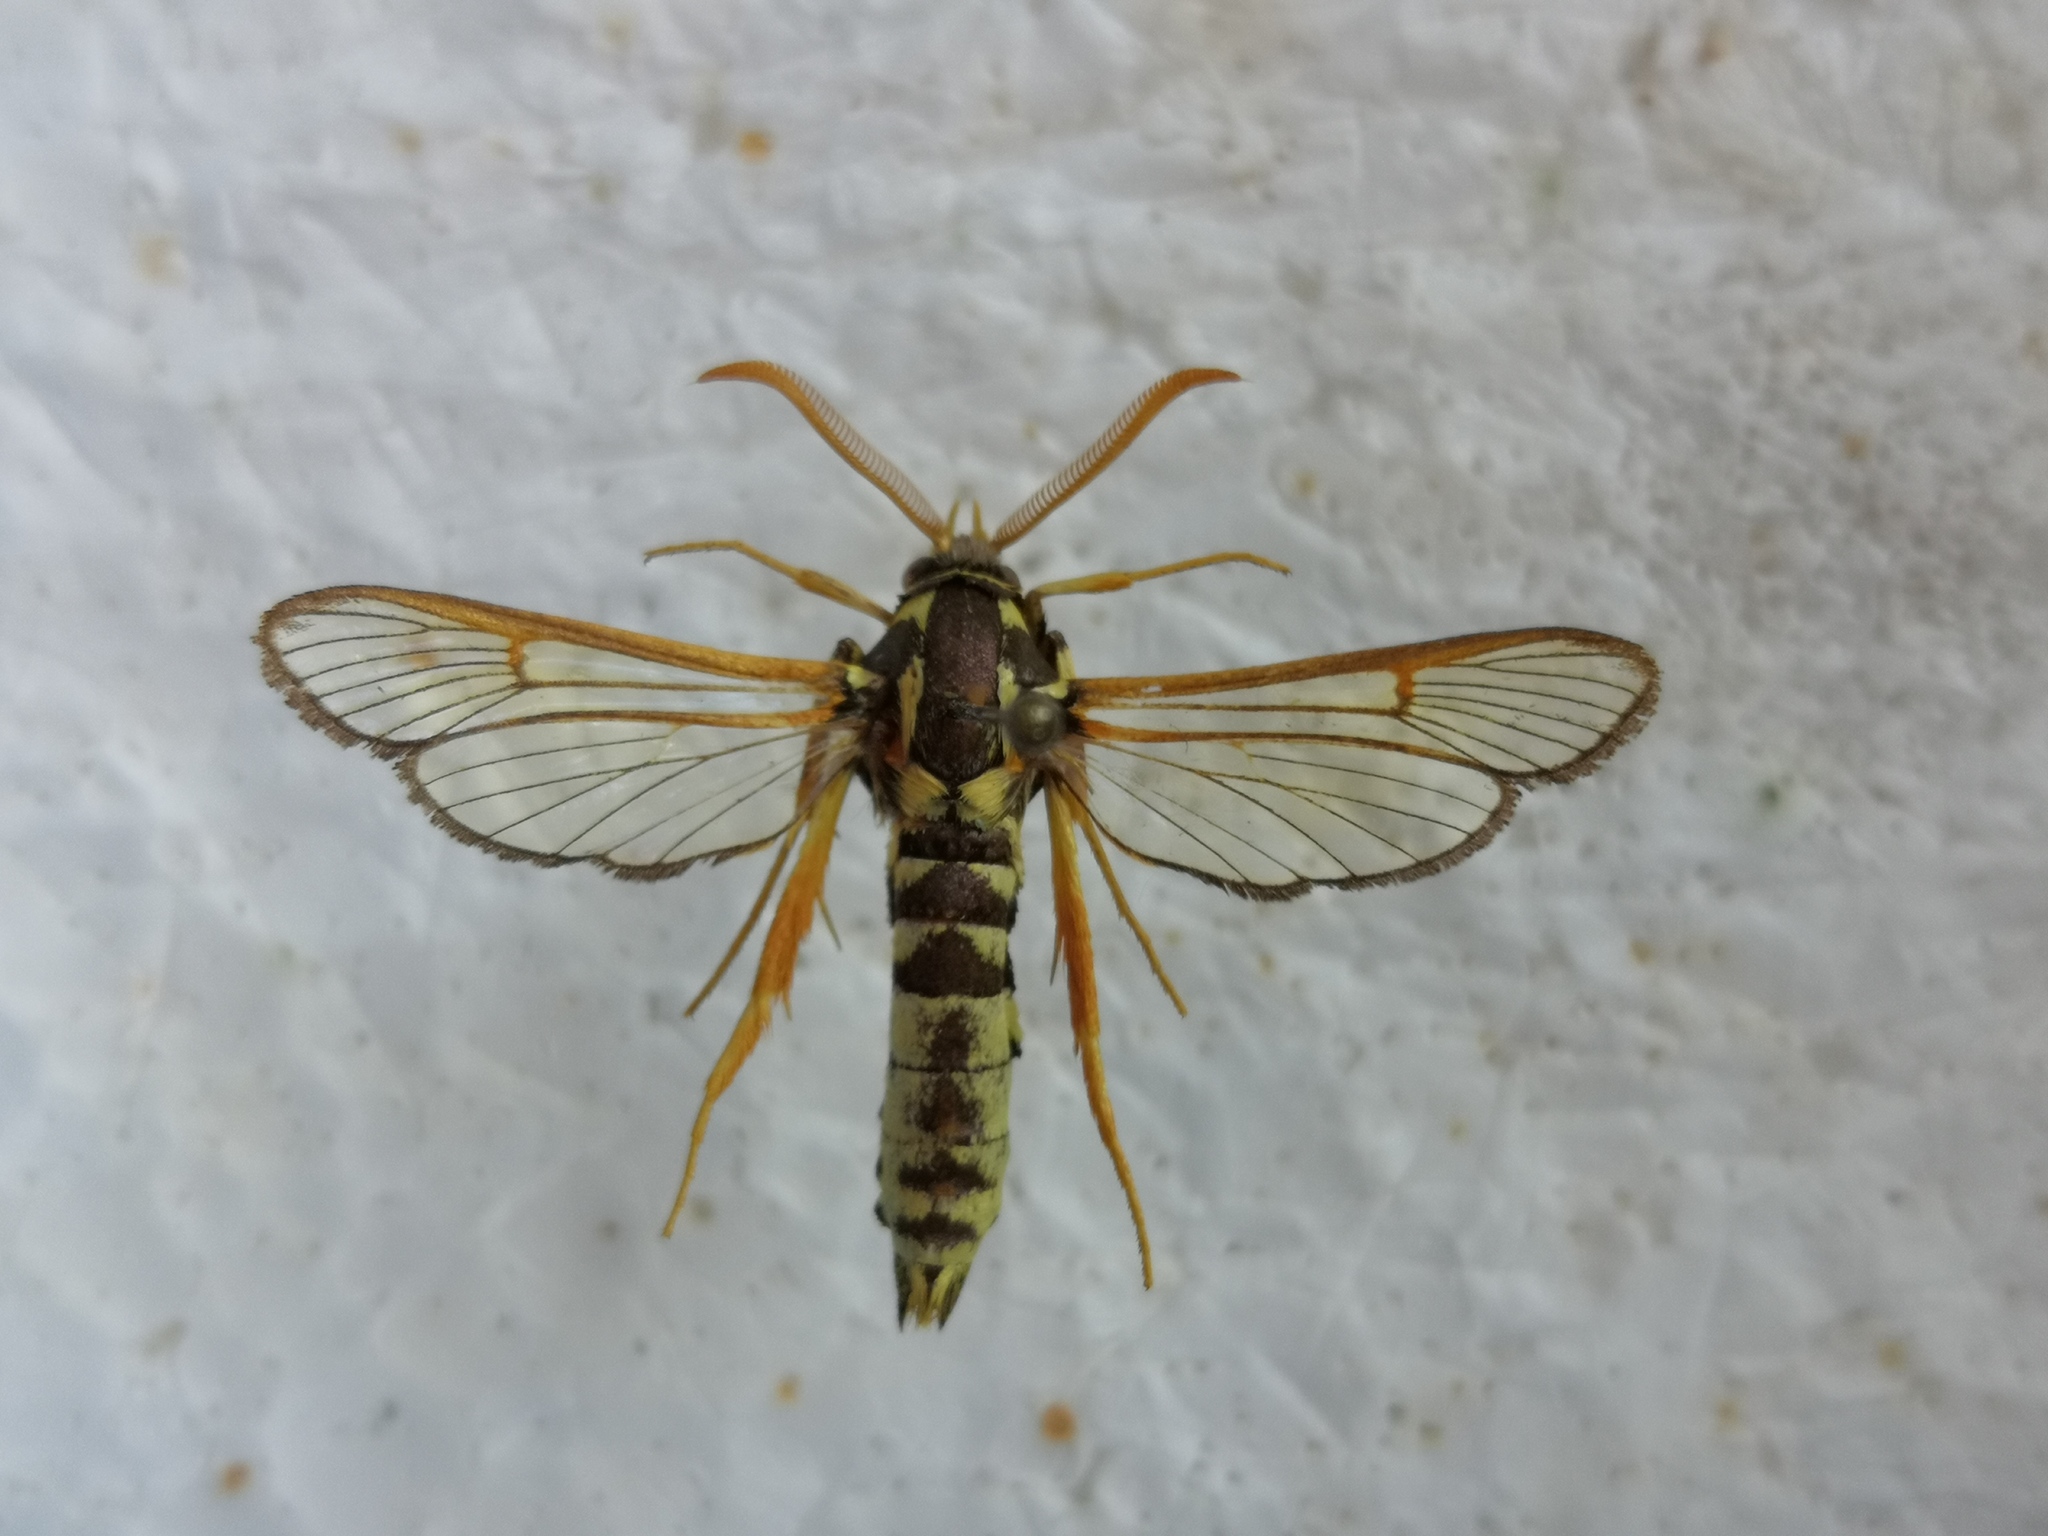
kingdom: Animalia
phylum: Arthropoda
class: Insecta
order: Lepidoptera
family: Sesiidae
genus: Eusphecia
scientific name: Eusphecia pimplaeformis
